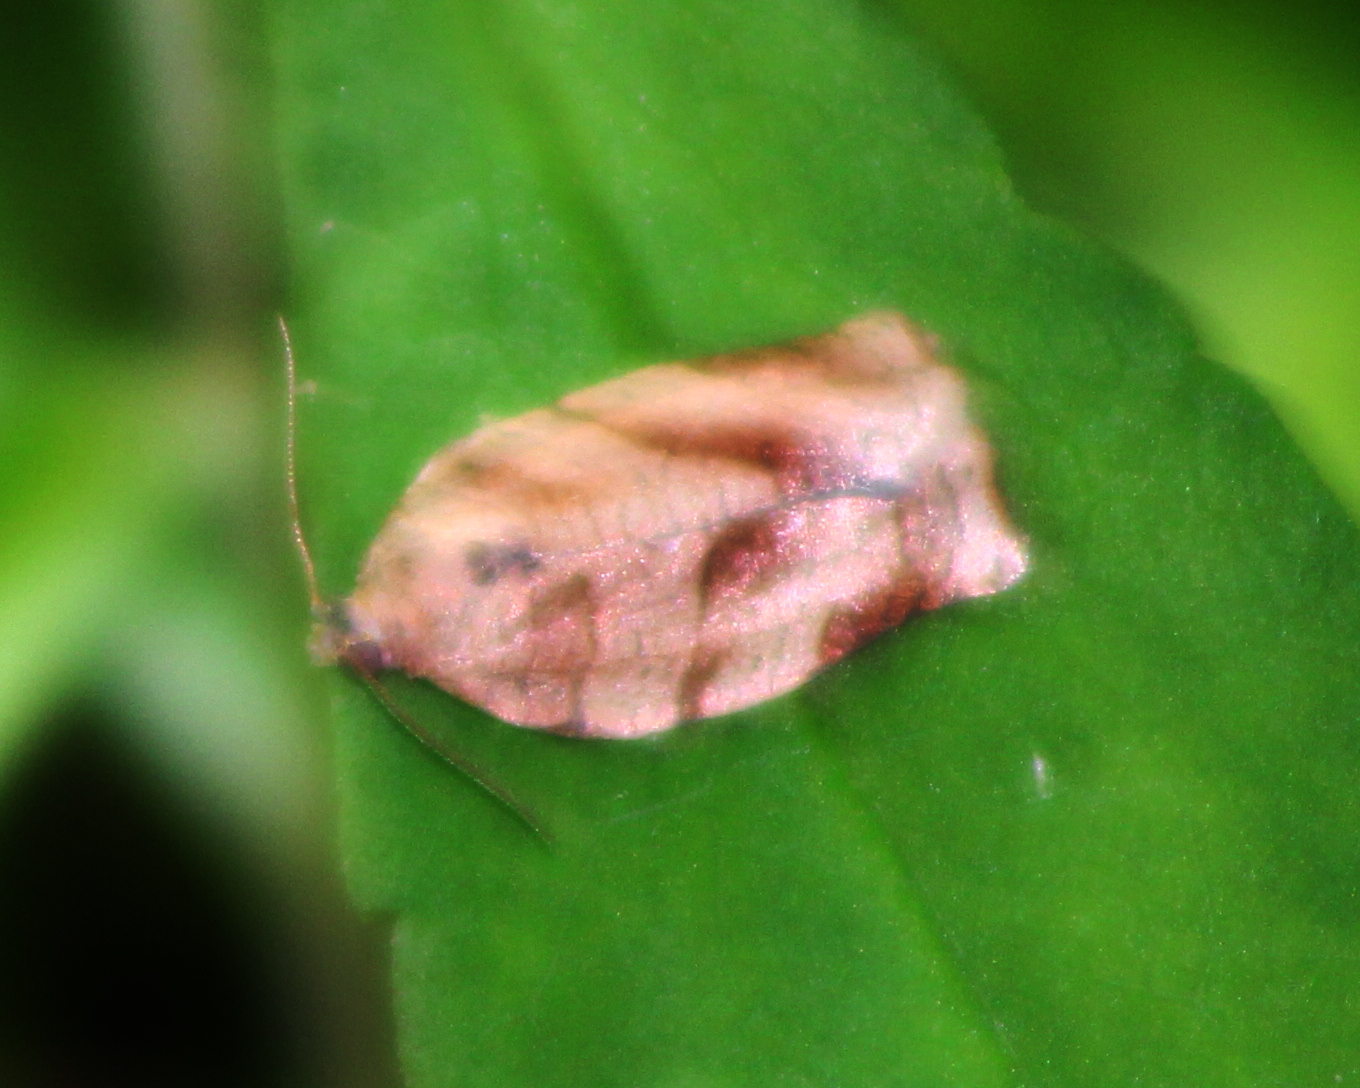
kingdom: Animalia
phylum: Arthropoda
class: Insecta
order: Lepidoptera
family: Tortricidae
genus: Choristoneura
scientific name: Choristoneura rosaceana
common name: Oblique-banded leafroller moth
